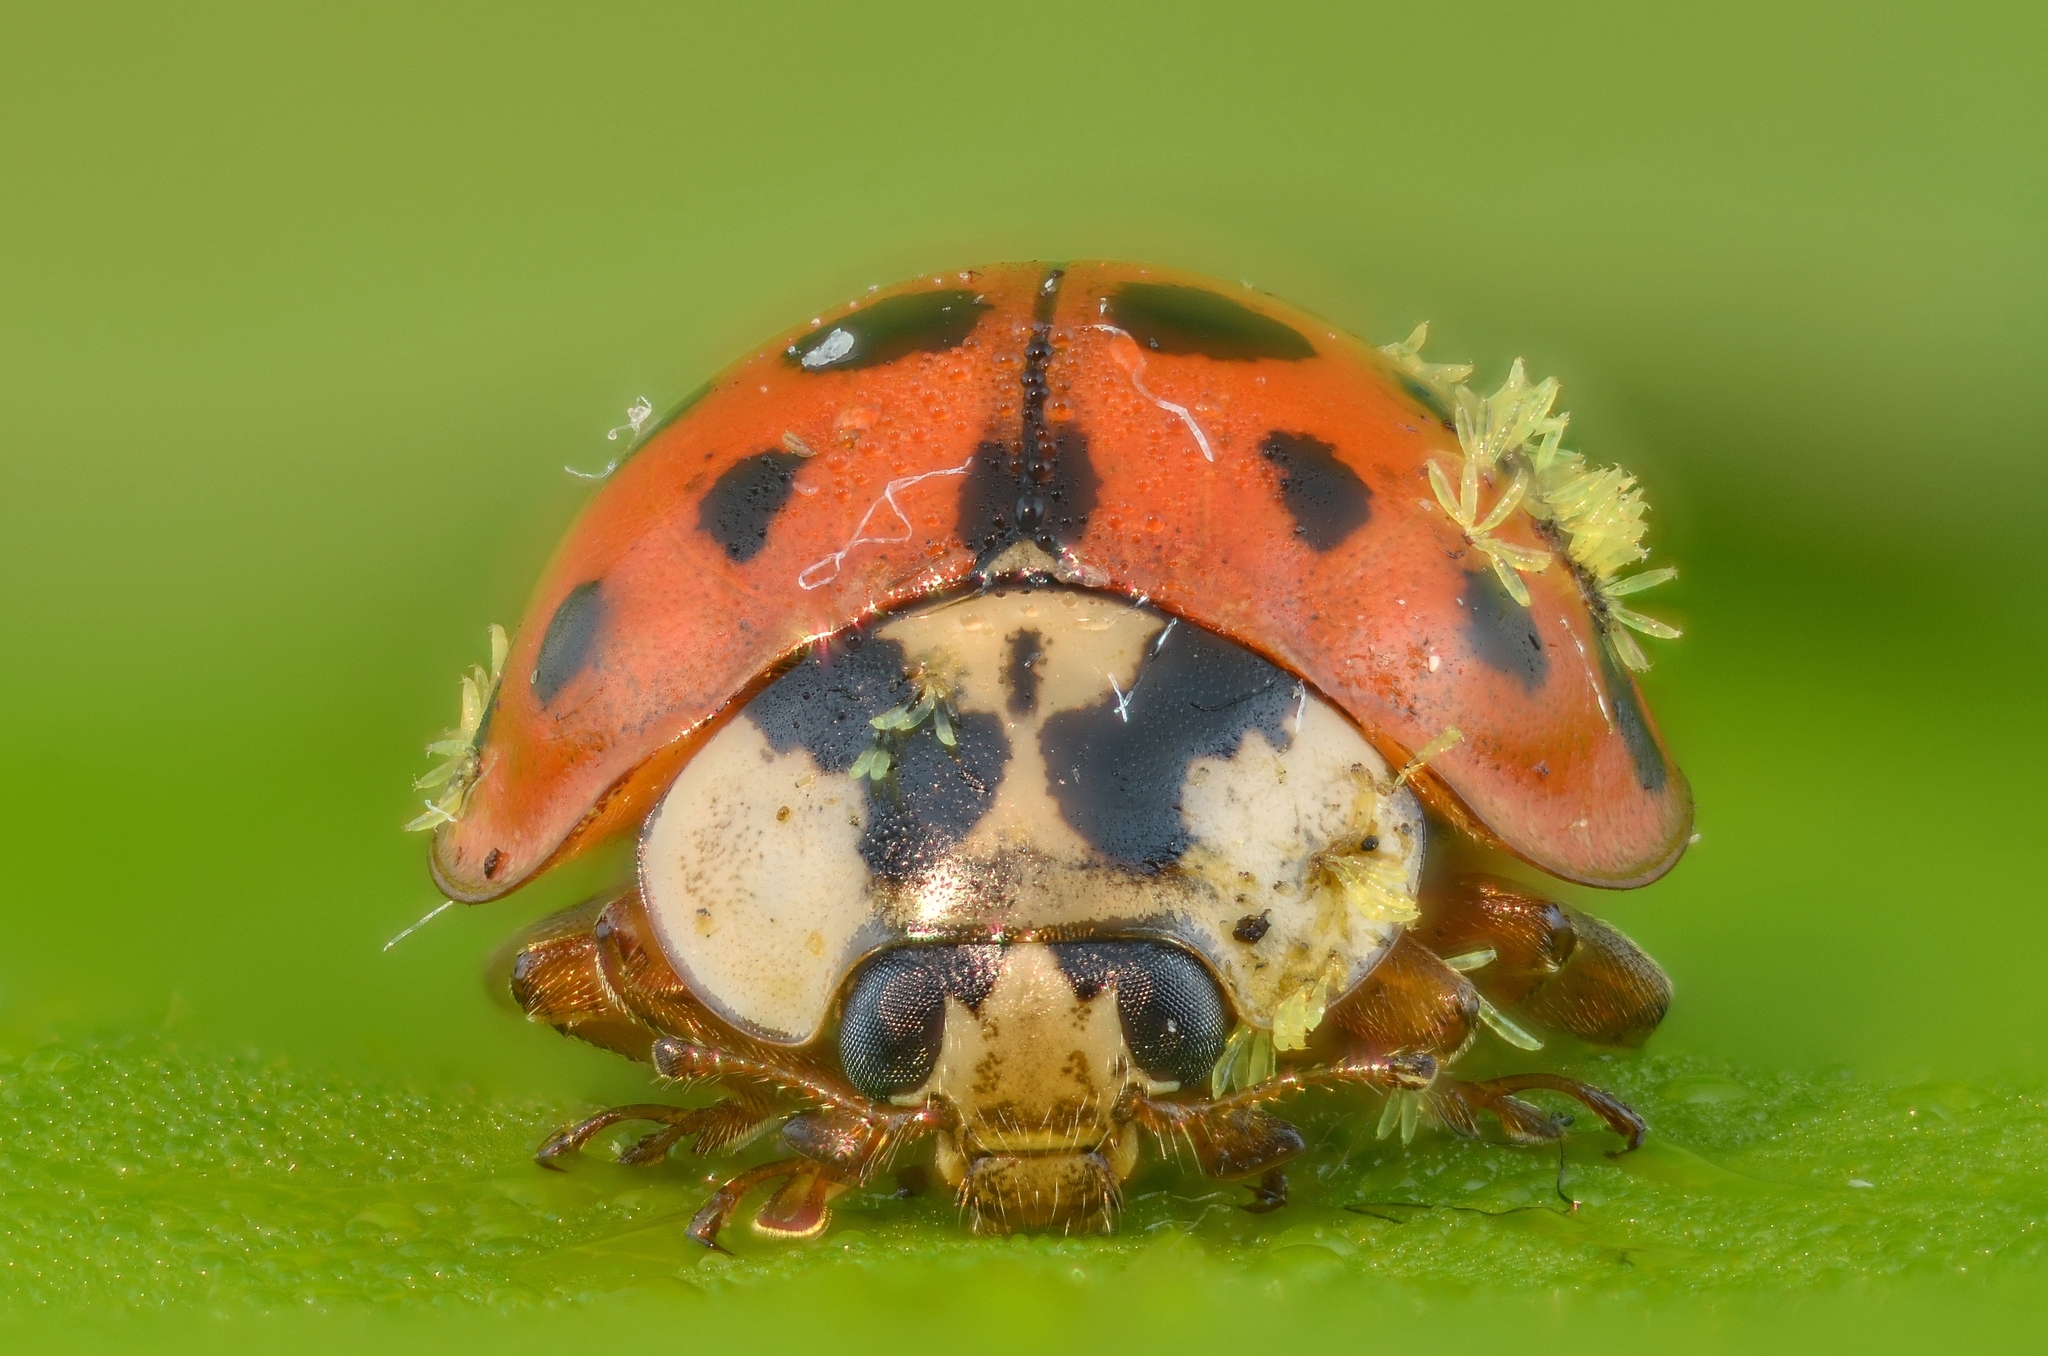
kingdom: Fungi
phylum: Ascomycota
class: Laboulbeniomycetes
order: Laboulbeniales
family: Laboulbeniaceae
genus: Hesperomyces
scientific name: Hesperomyces harmoniae
